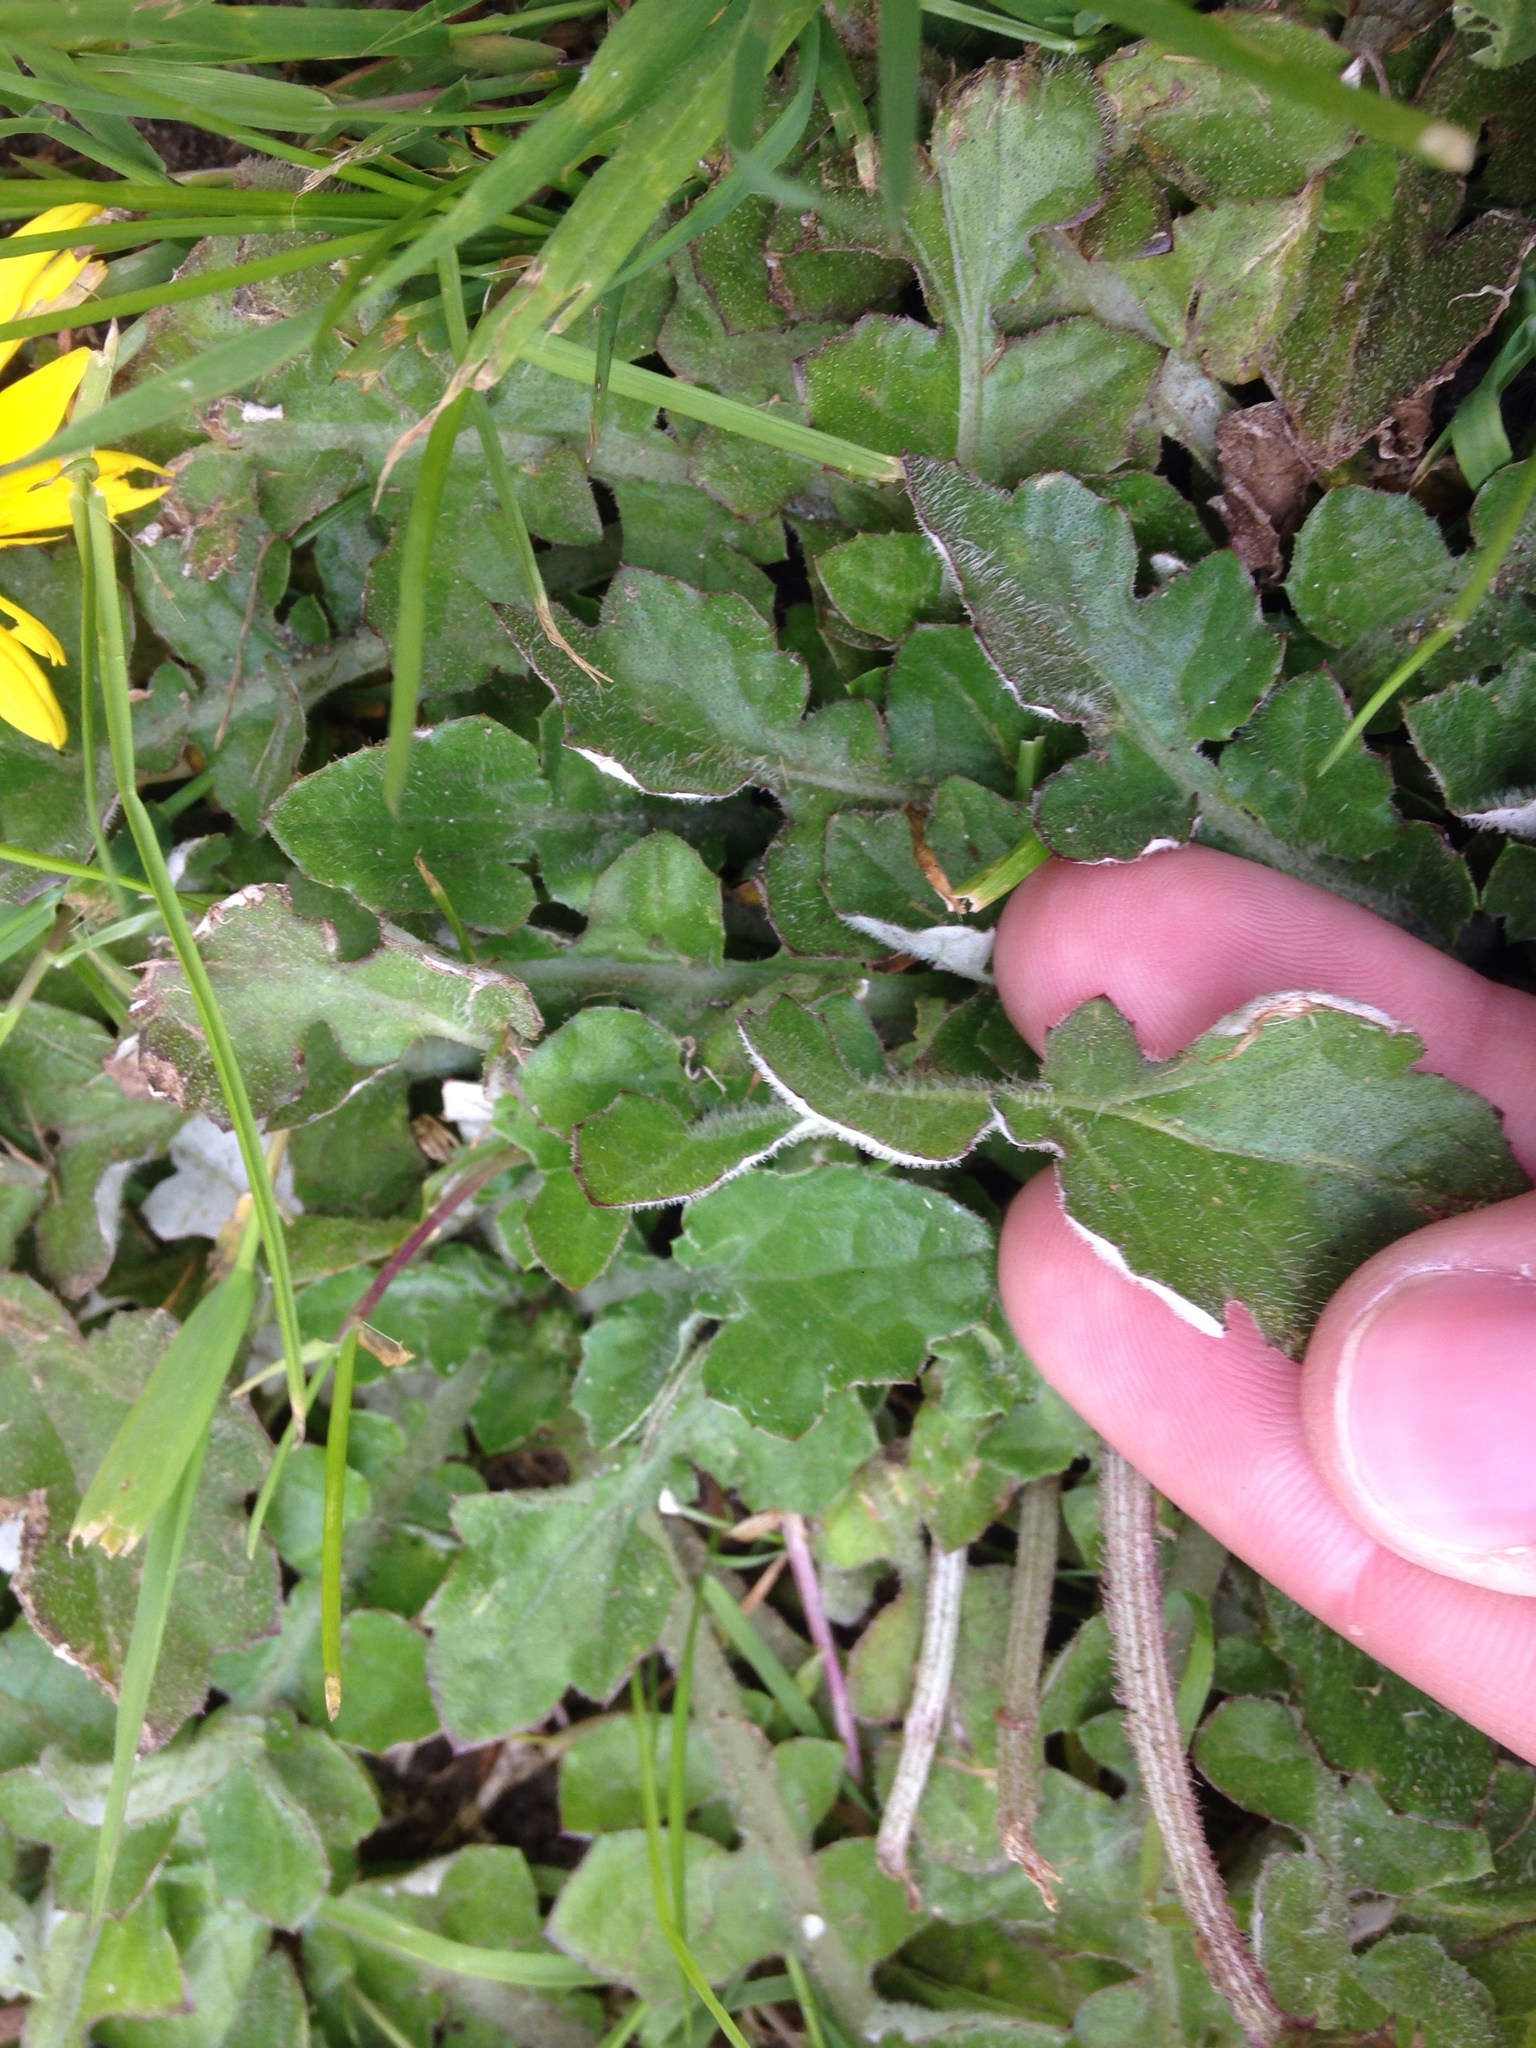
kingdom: Plantae
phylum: Tracheophyta
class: Magnoliopsida
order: Asterales
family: Asteraceae
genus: Arctotheca
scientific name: Arctotheca prostrata
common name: Capeweed
